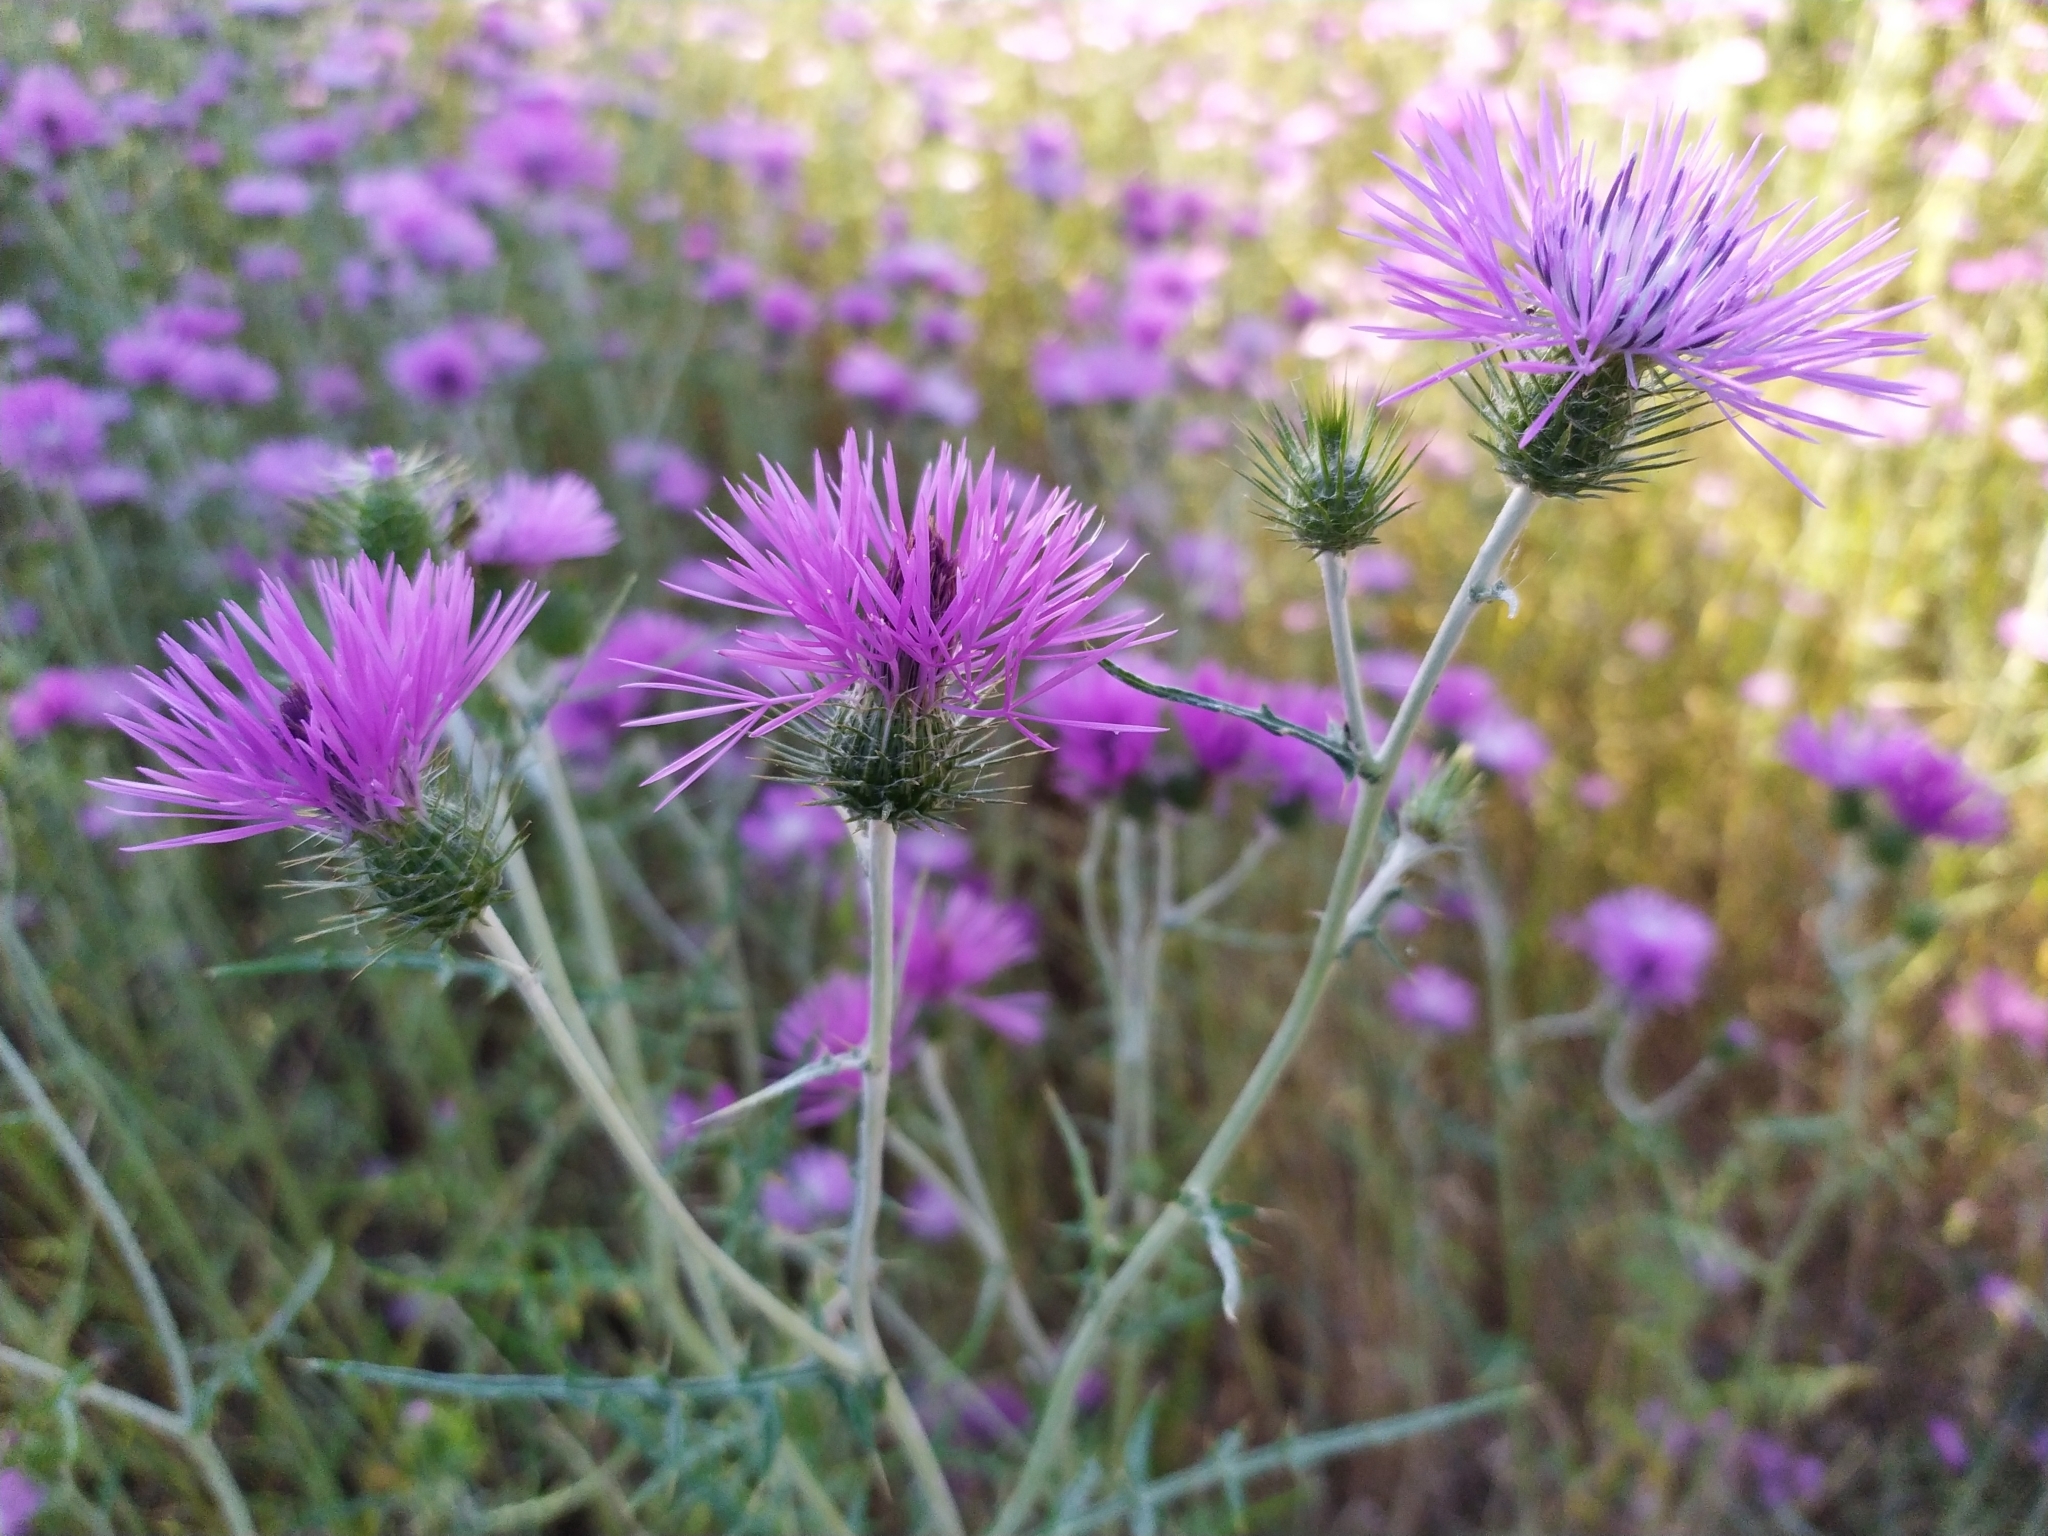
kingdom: Plantae
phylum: Tracheophyta
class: Magnoliopsida
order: Asterales
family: Asteraceae
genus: Galactites
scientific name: Galactites tomentosa
